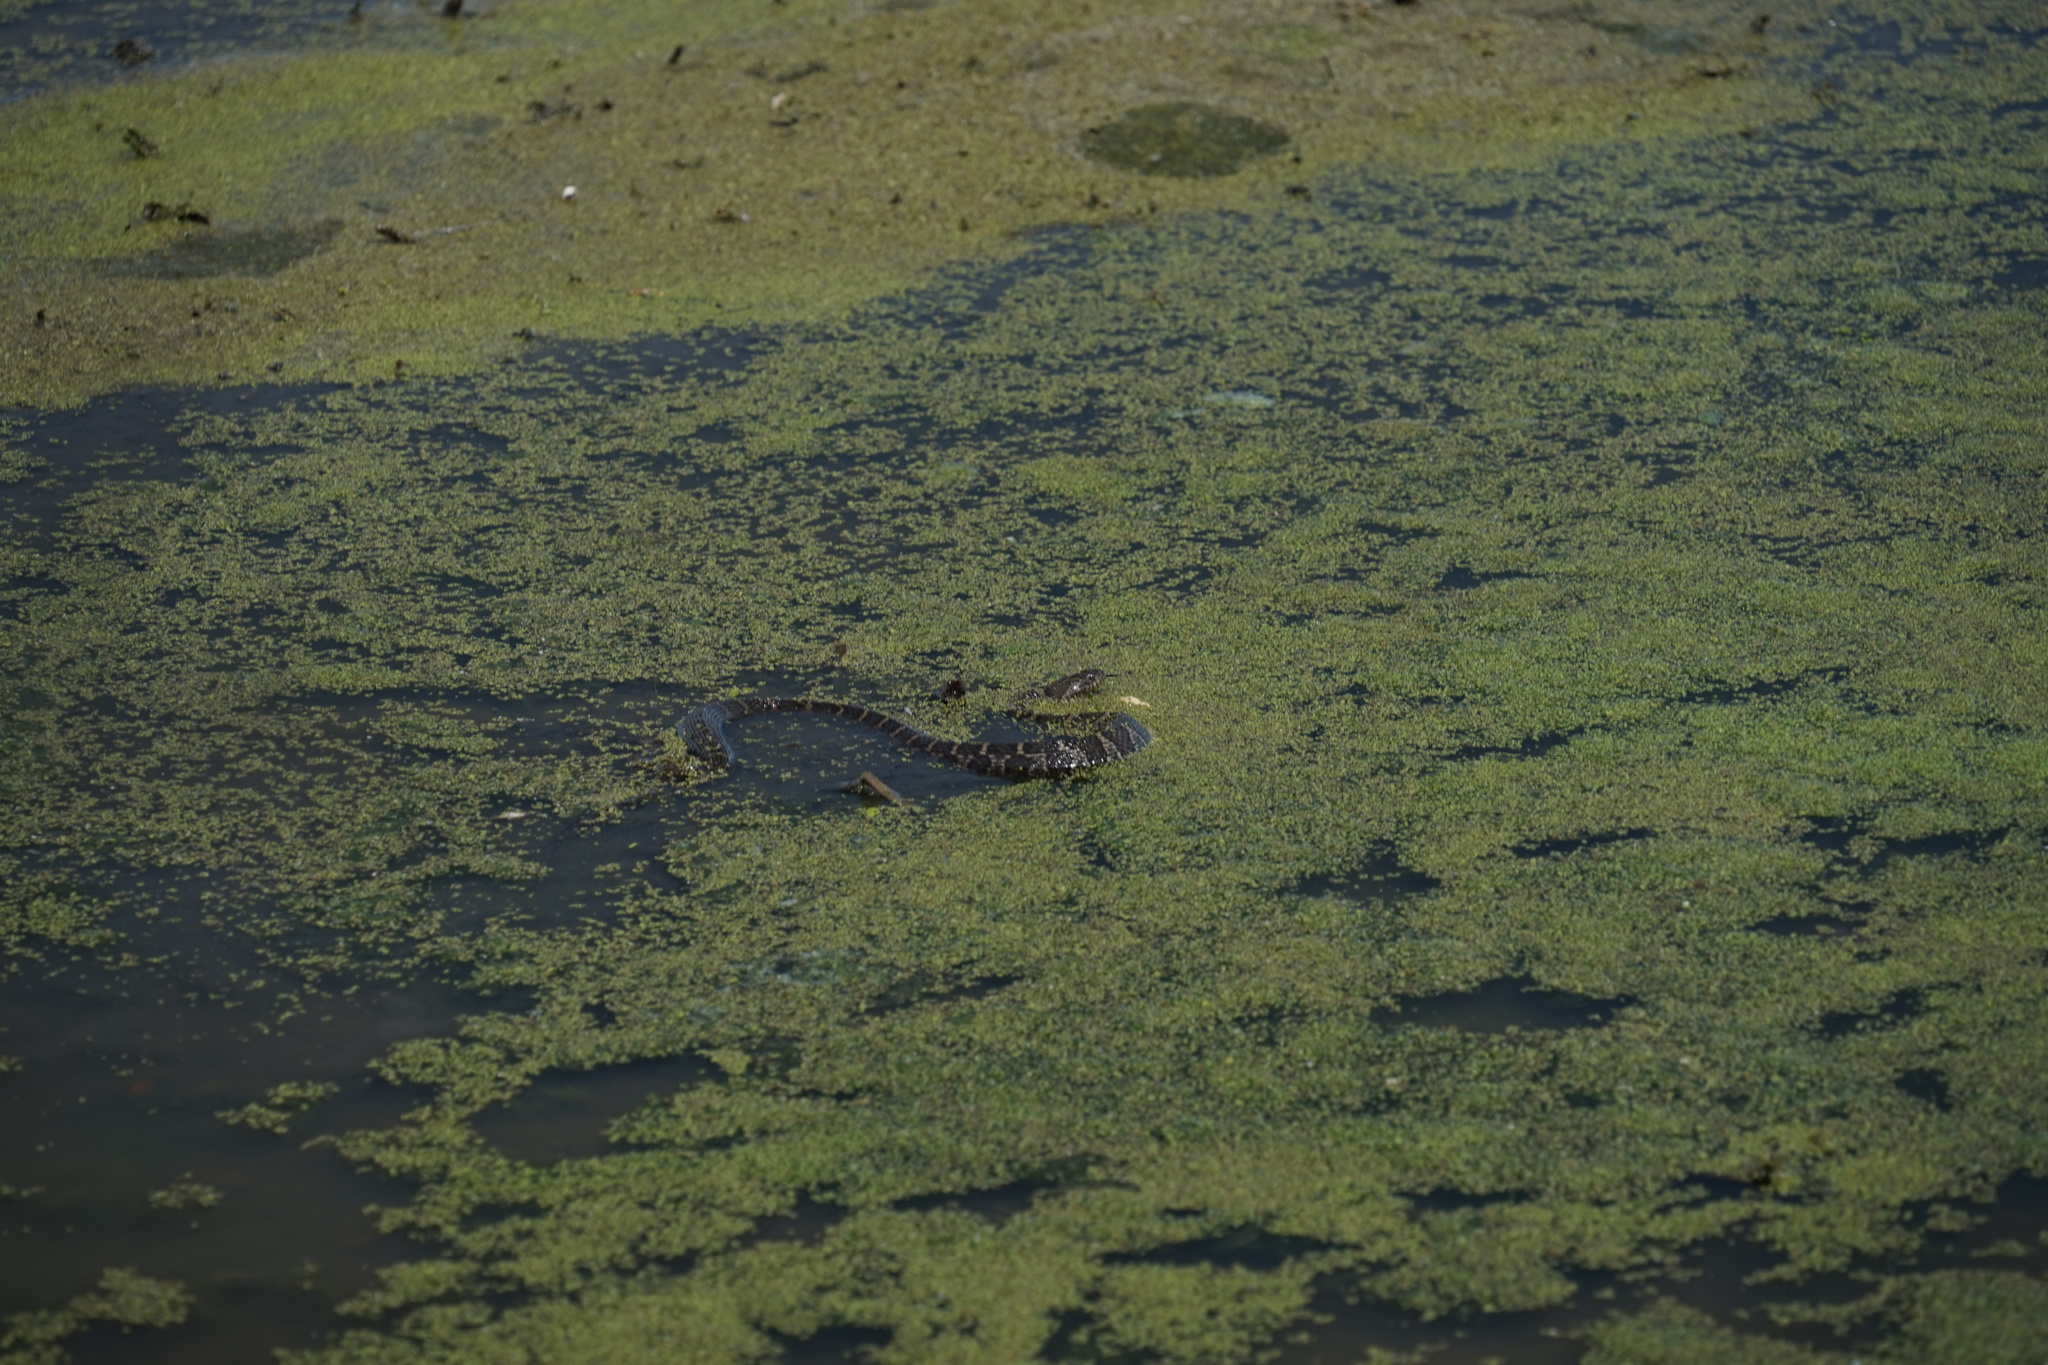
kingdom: Animalia
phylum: Chordata
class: Squamata
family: Colubridae
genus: Nerodia
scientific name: Nerodia sipedon
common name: Northern water snake
